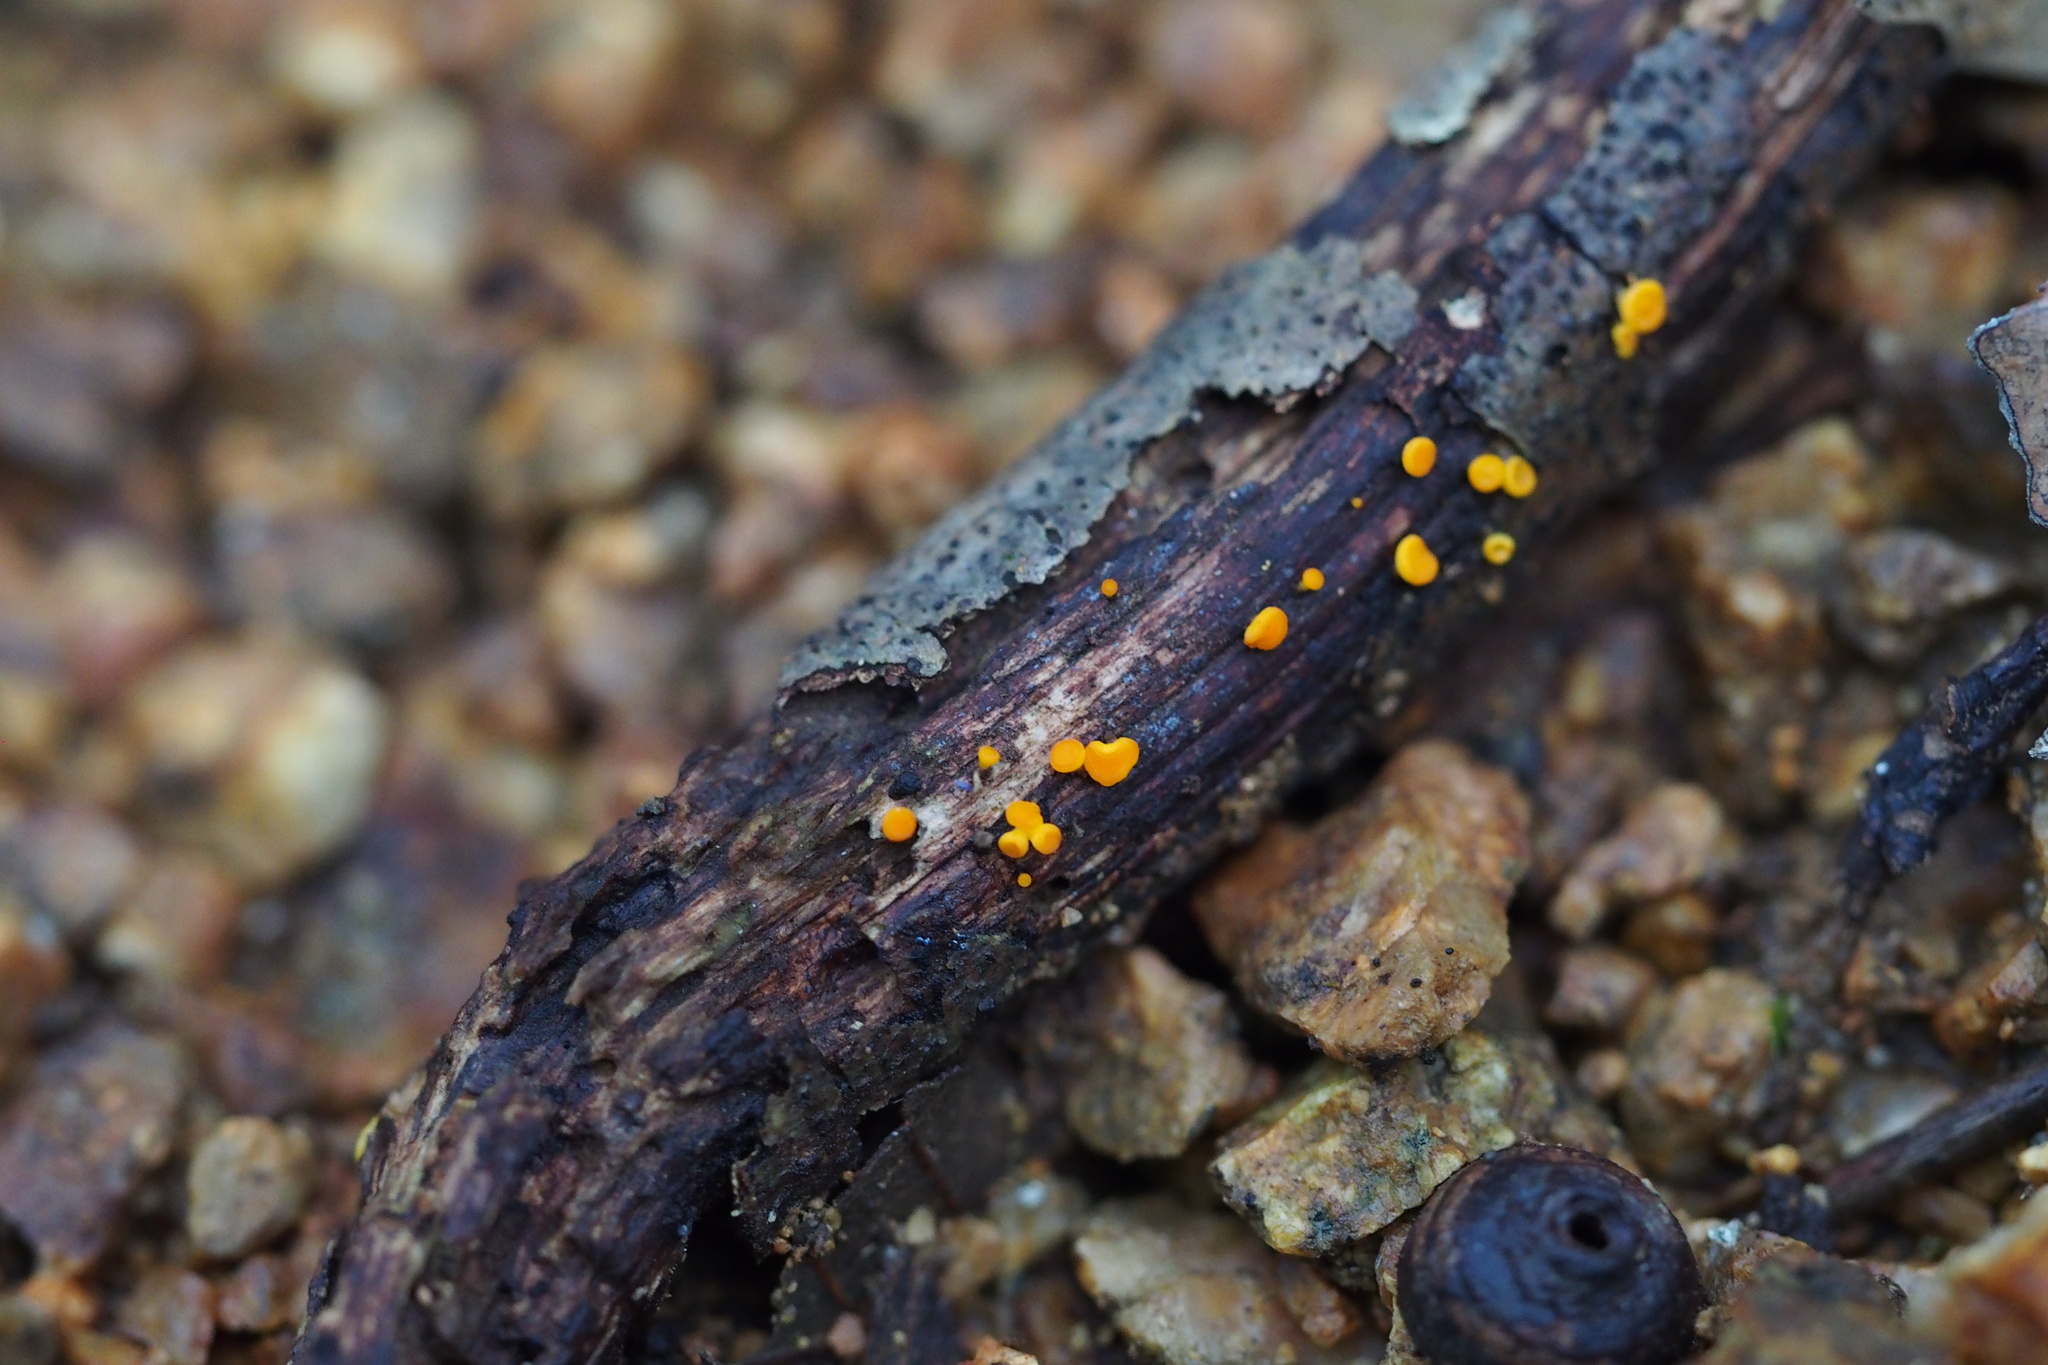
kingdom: Fungi
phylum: Ascomycota
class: Leotiomycetes
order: Helotiales
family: Helotiaceae
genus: Dicephalospora
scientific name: Dicephalospora rufocornea
